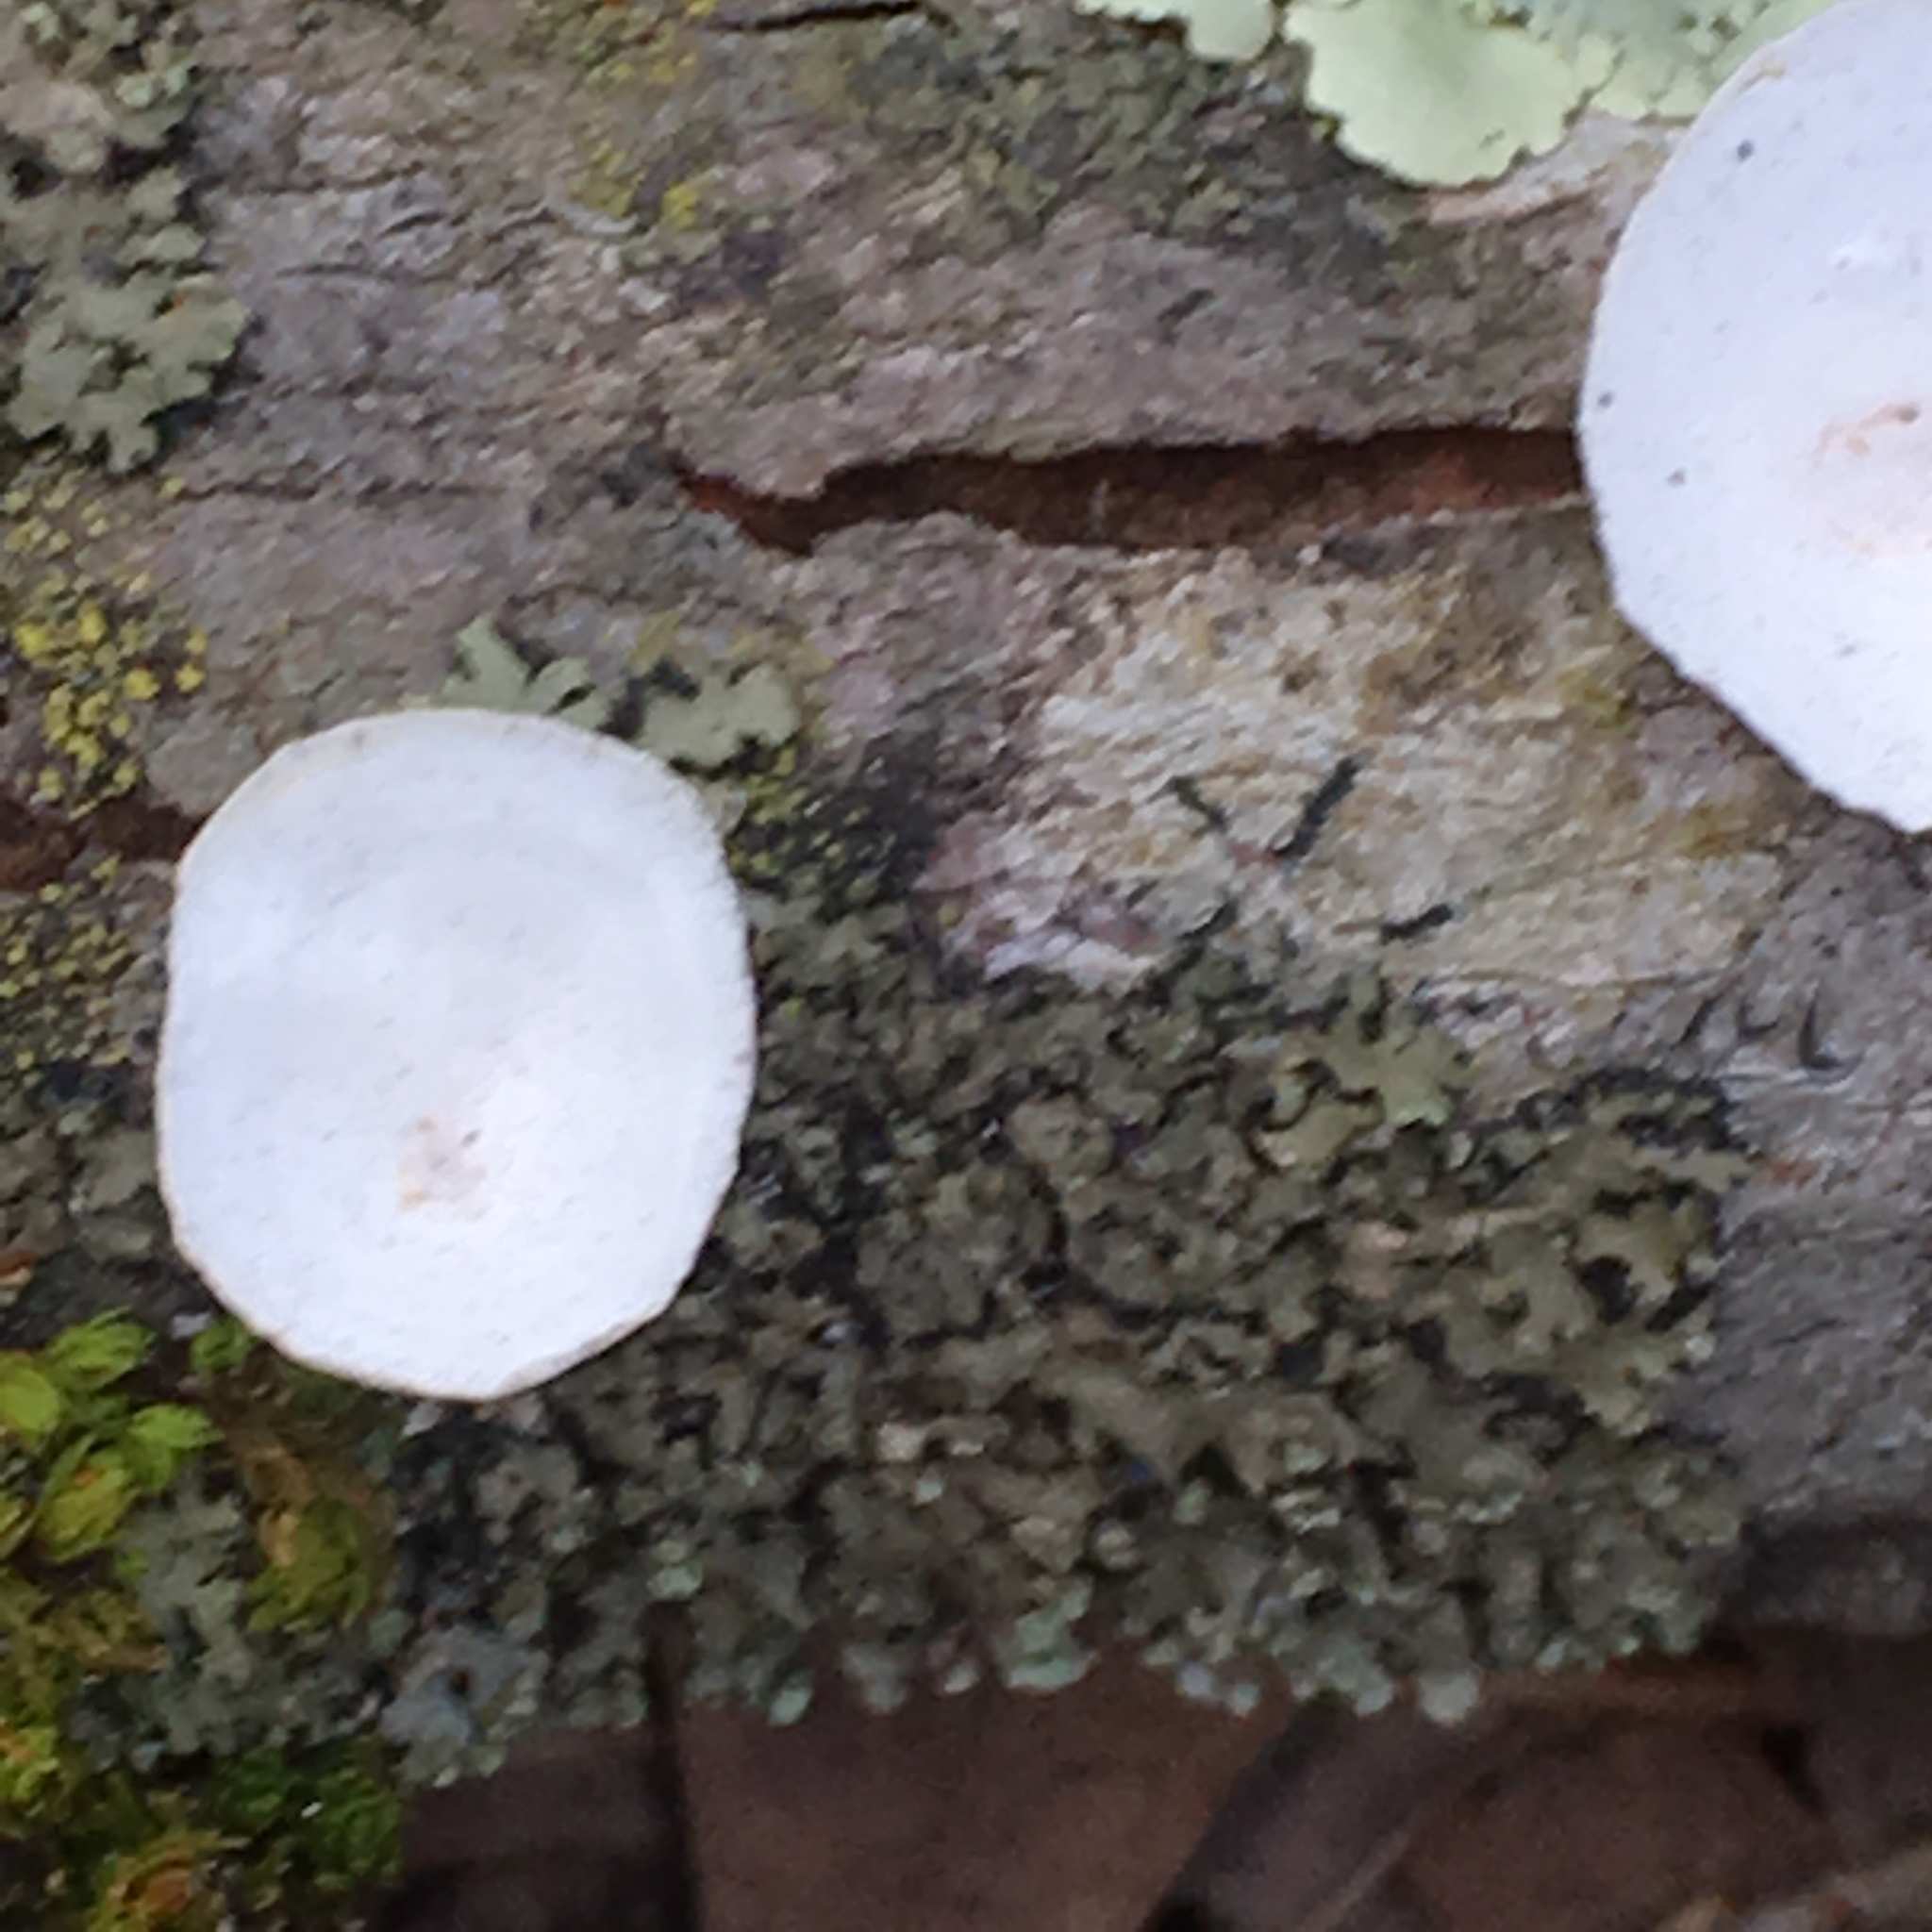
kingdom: Fungi
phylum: Basidiomycota
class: Agaricomycetes
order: Polyporales
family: Polyporaceae
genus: Poronidulus
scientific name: Poronidulus conchifer
